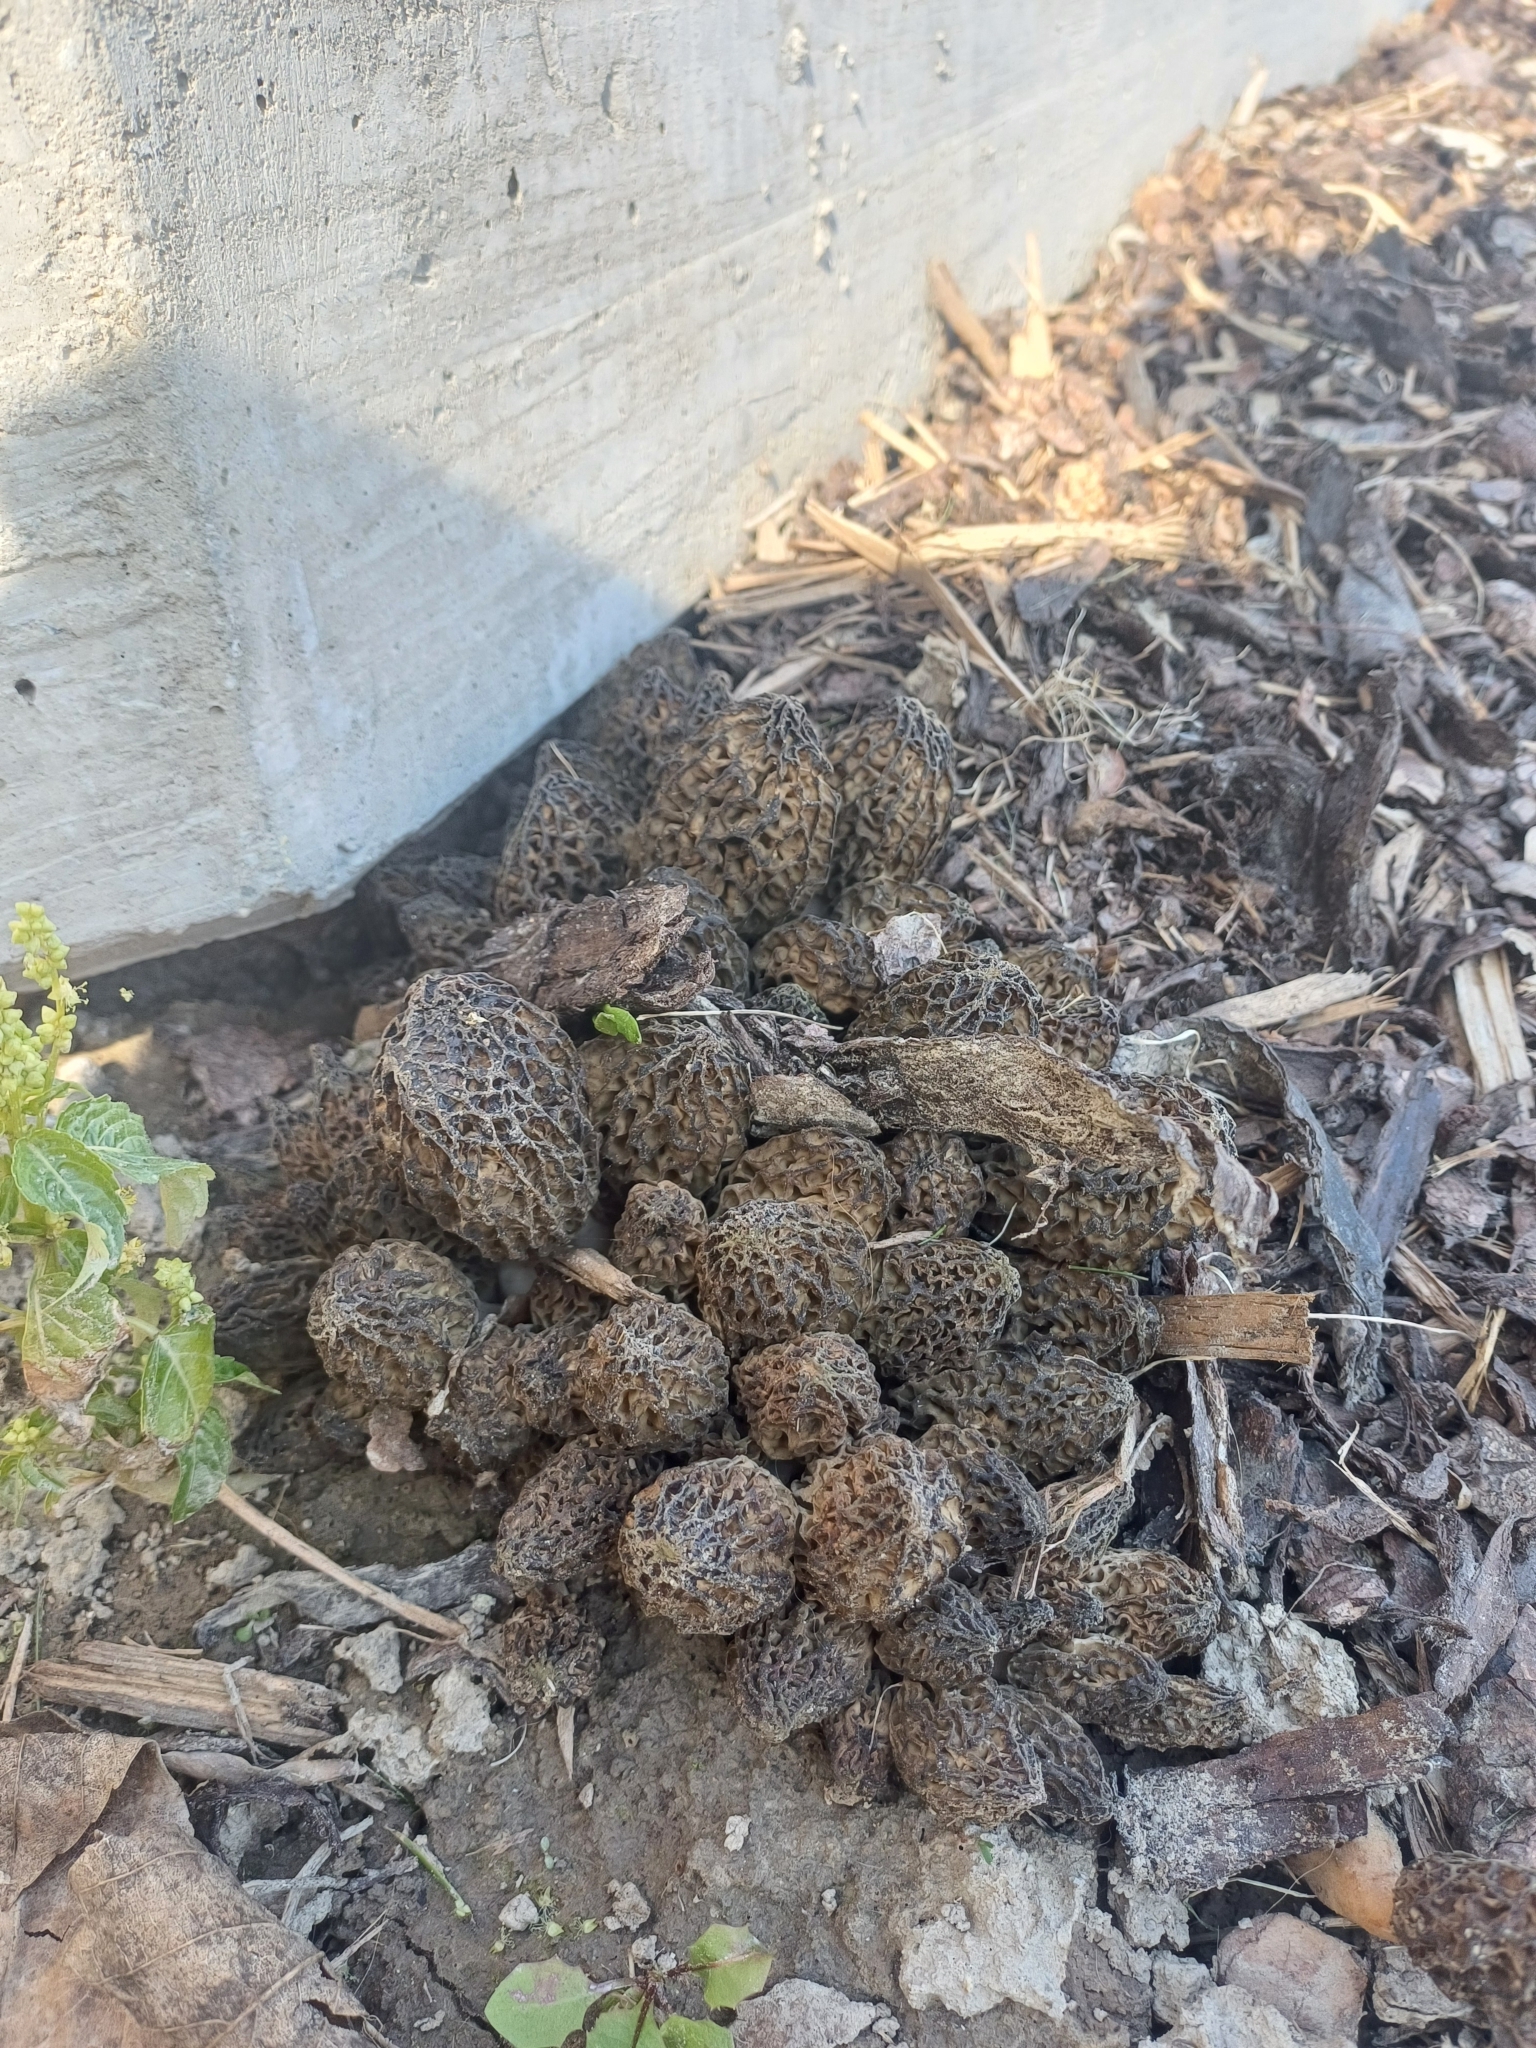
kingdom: Fungi
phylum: Ascomycota
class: Pezizomycetes
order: Pezizales
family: Morchellaceae
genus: Morchella
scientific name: Morchella importuna
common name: Landscaping black morel
